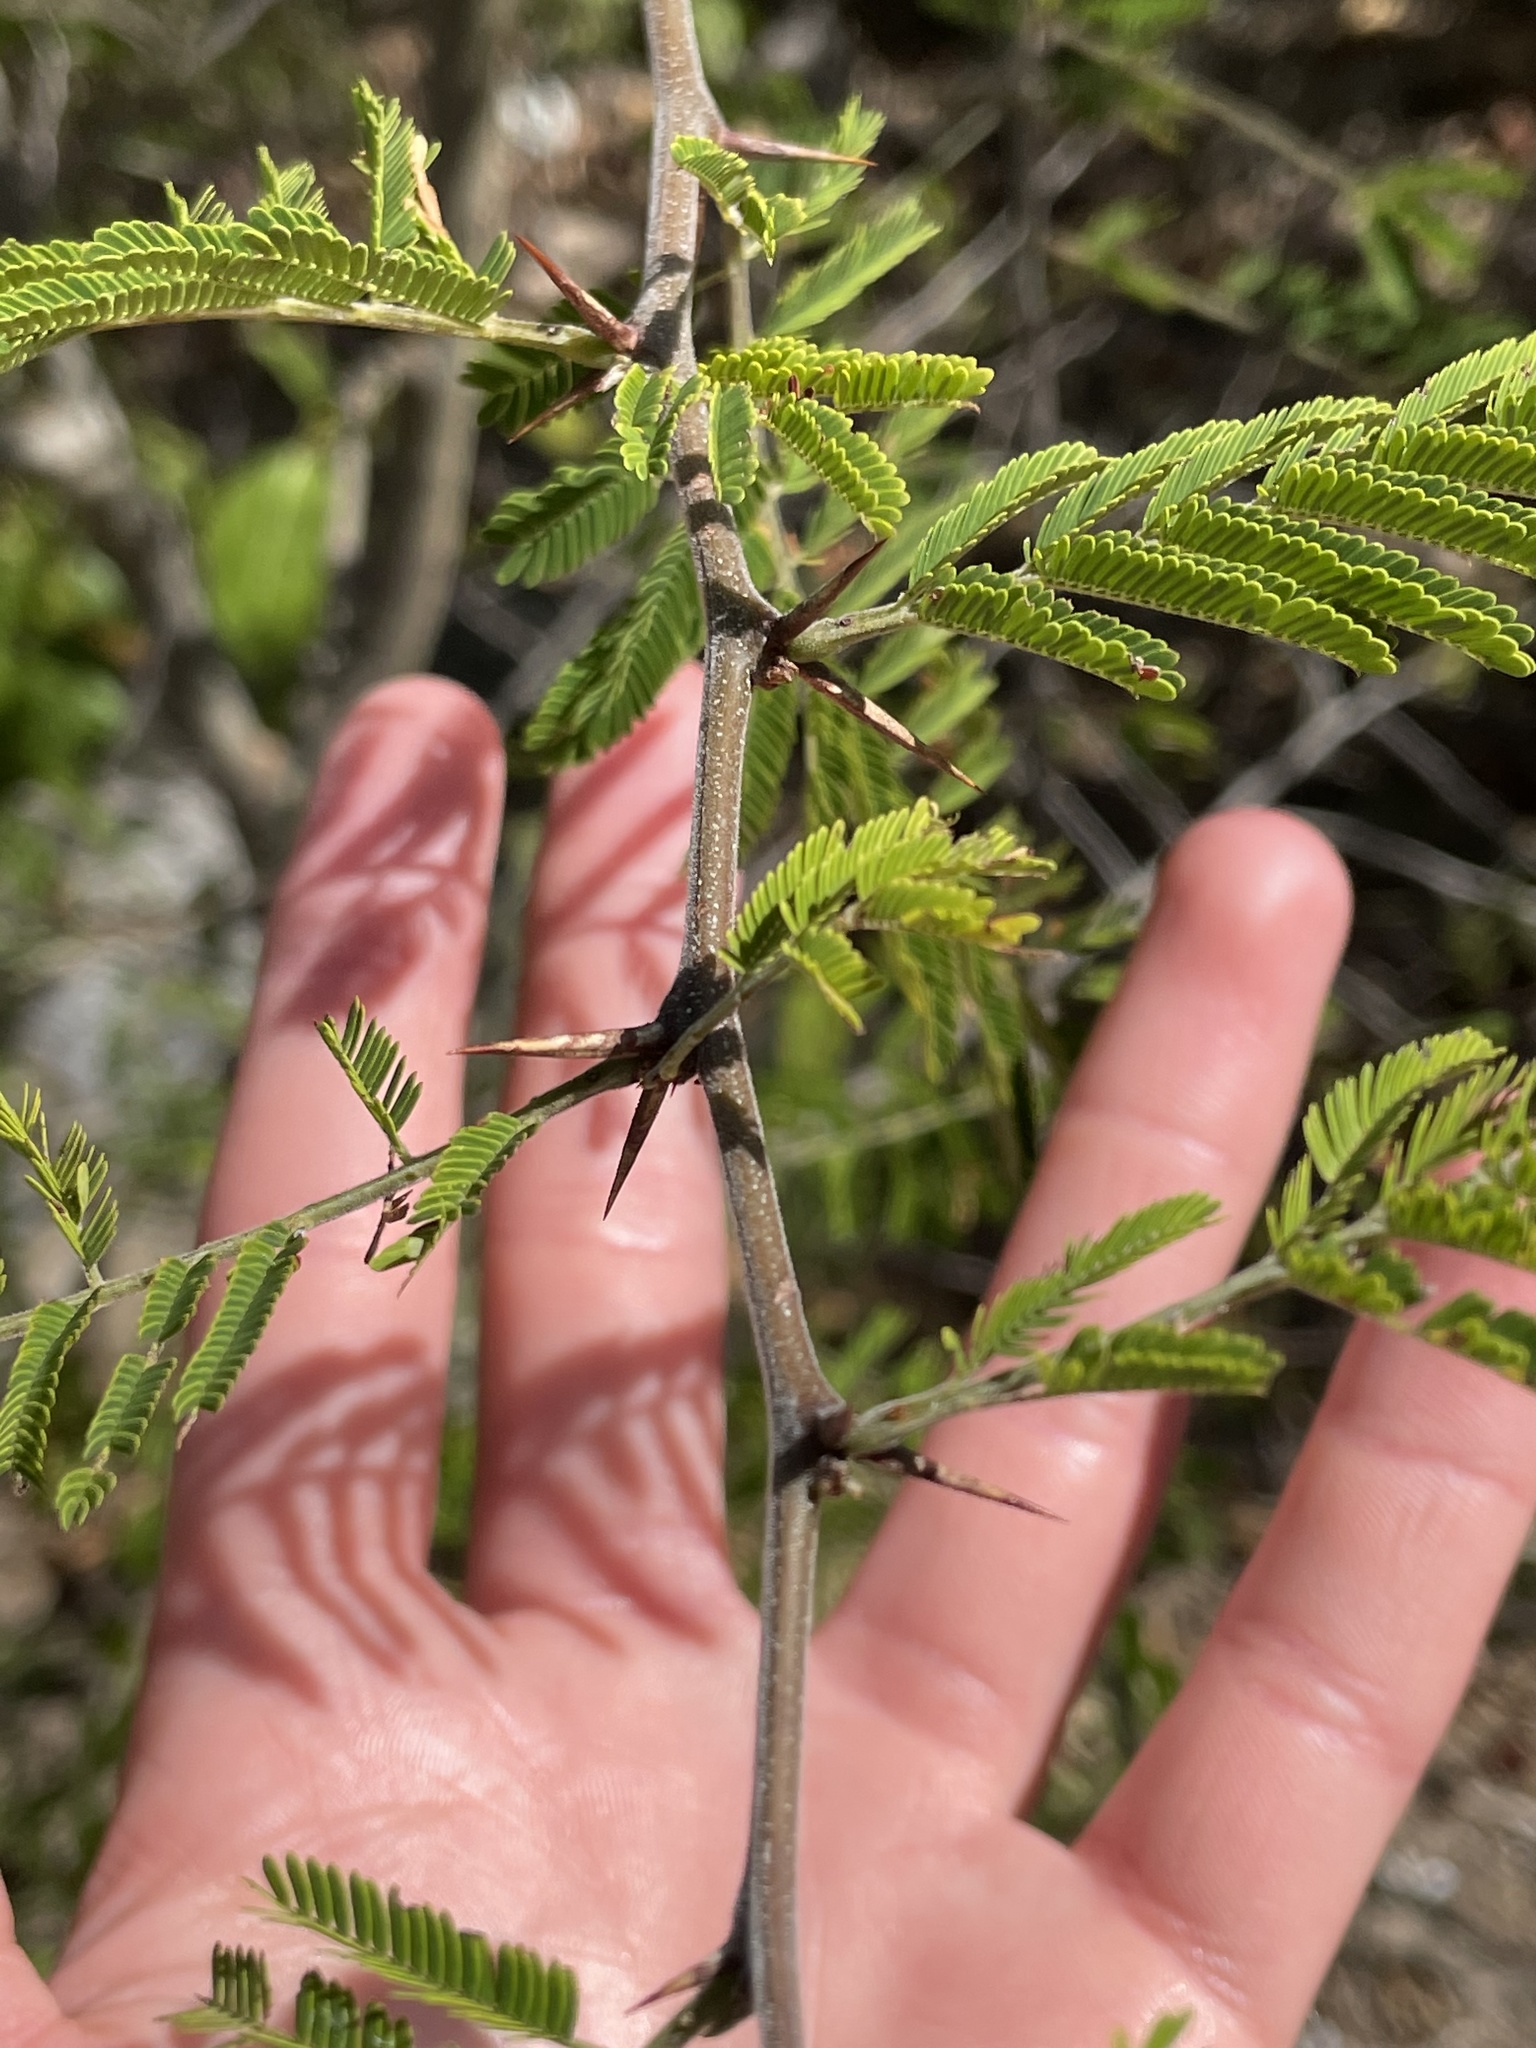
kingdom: Plantae
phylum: Tracheophyta
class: Magnoliopsida
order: Fabales
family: Fabaceae
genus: Vachellia
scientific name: Vachellia macracantha
